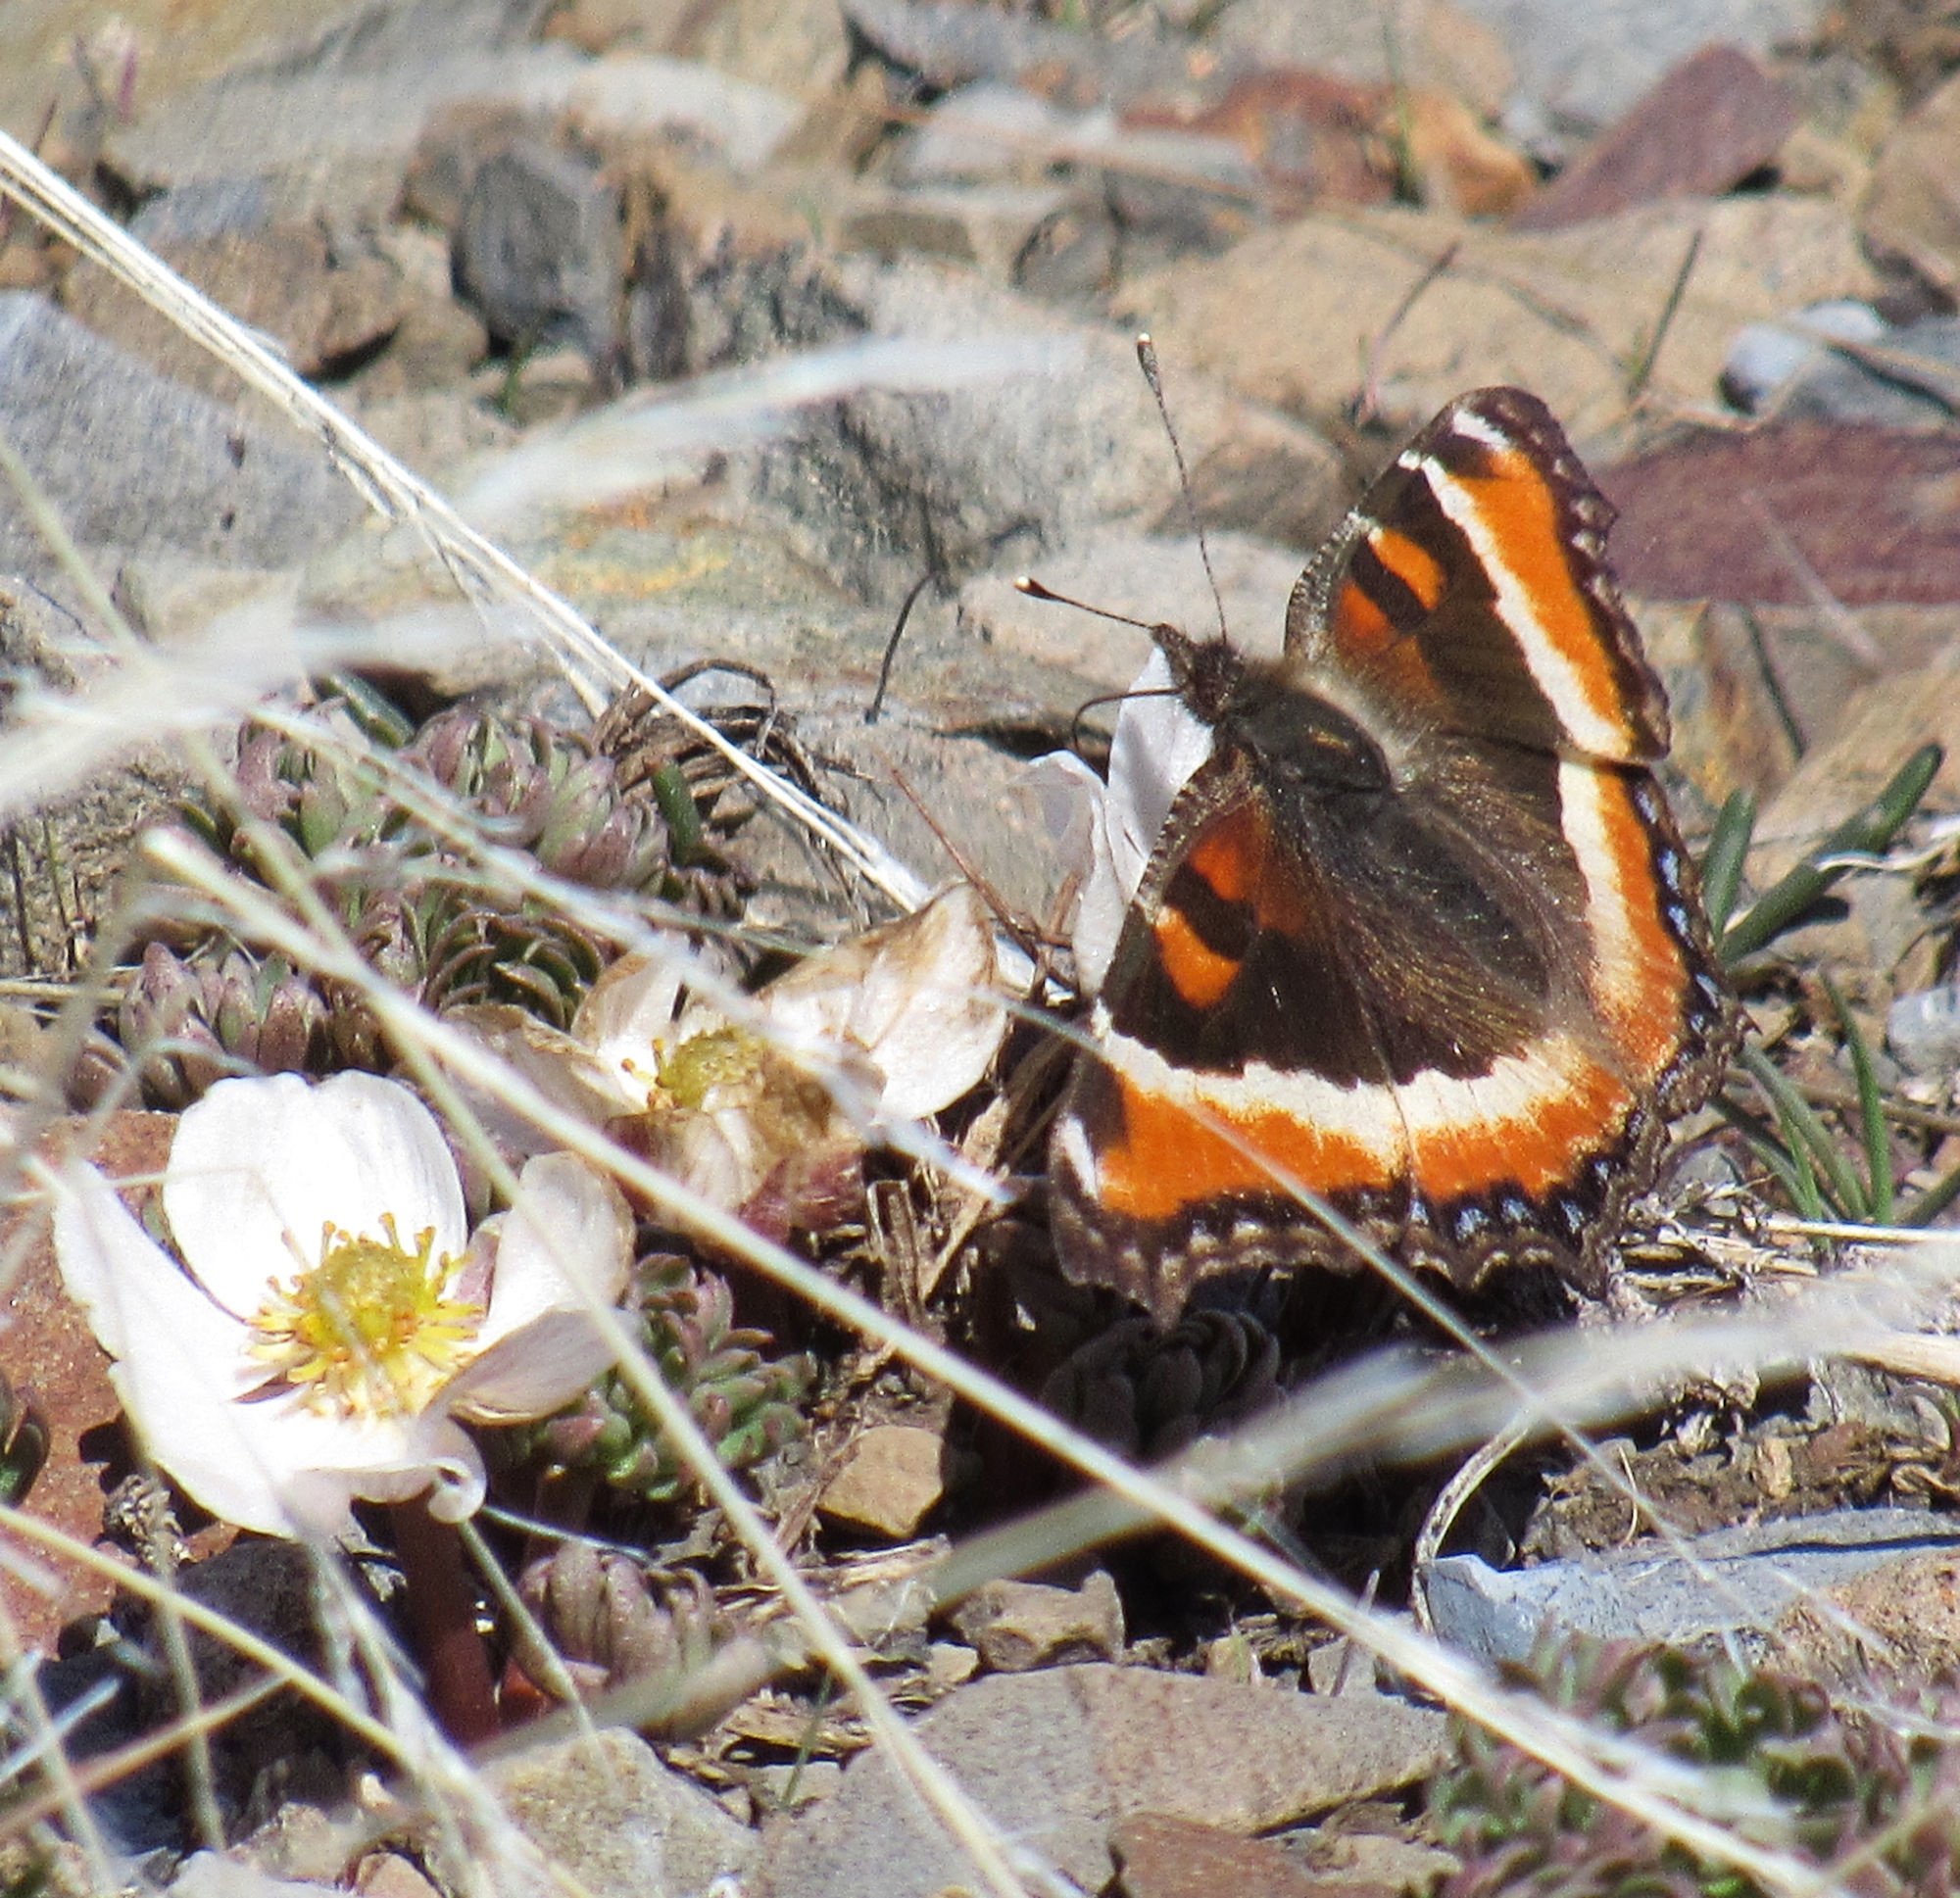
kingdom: Animalia
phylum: Arthropoda
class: Insecta
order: Lepidoptera
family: Nymphalidae
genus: Aglais
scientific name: Aglais milberti
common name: Milbert's tortoiseshell
